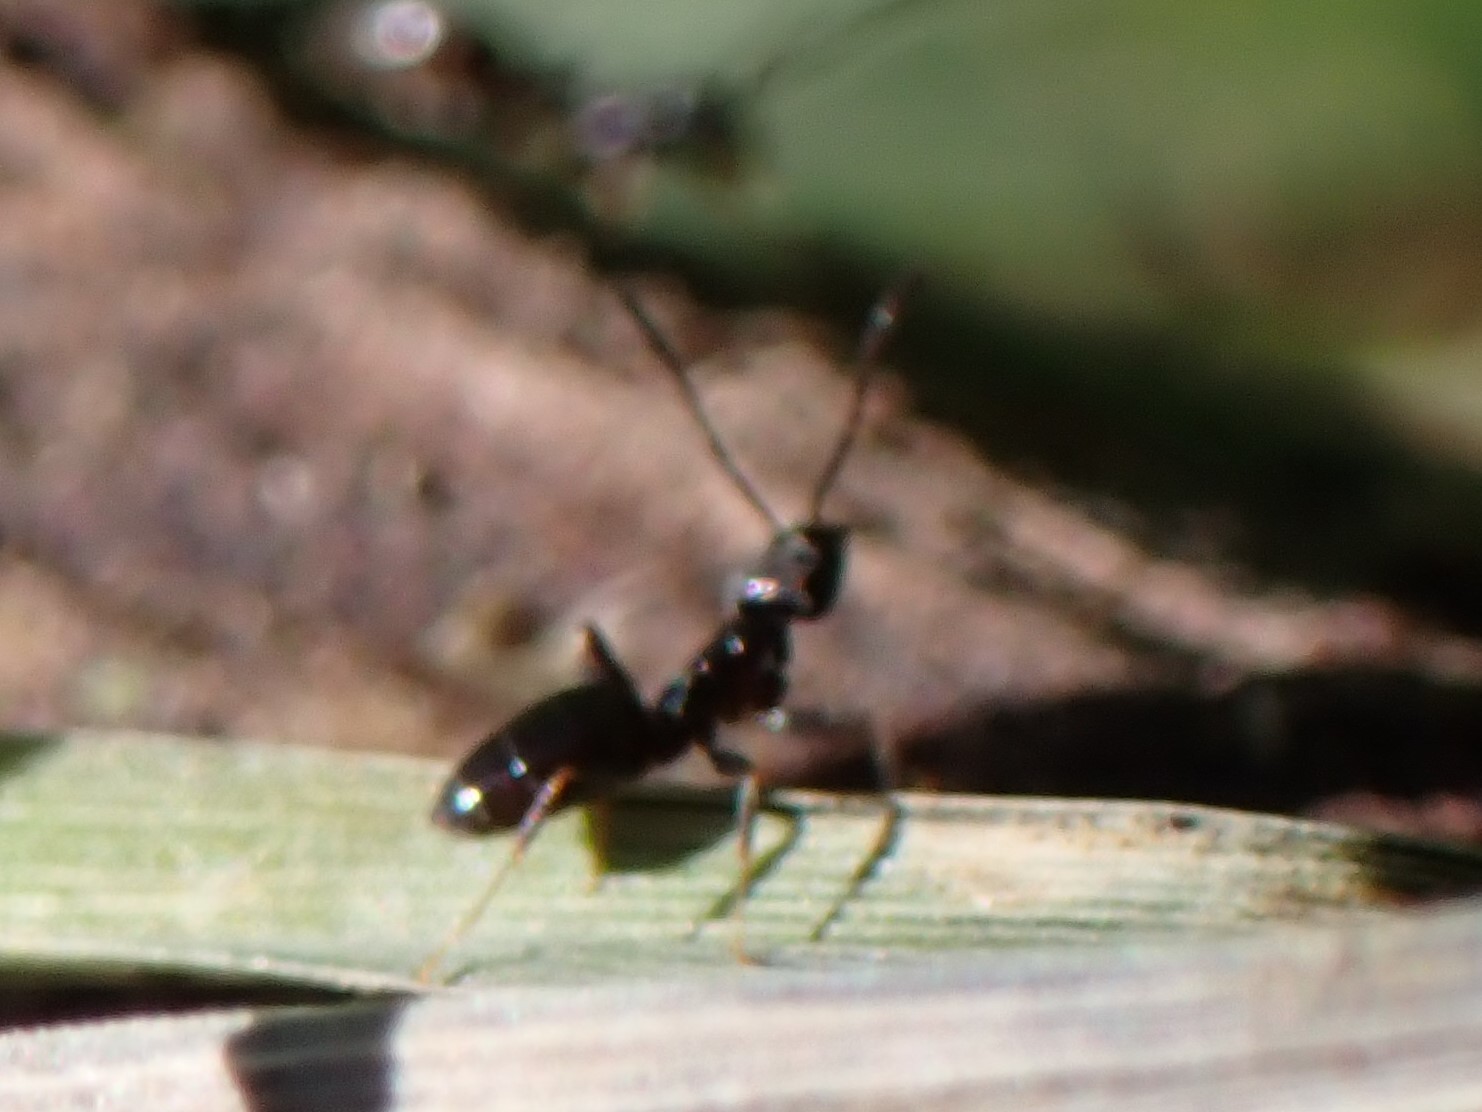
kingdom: Animalia
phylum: Arthropoda
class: Insecta
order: Hymenoptera
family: Formicidae
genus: Tapinoma
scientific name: Tapinoma sessile
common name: Odorous house ant
